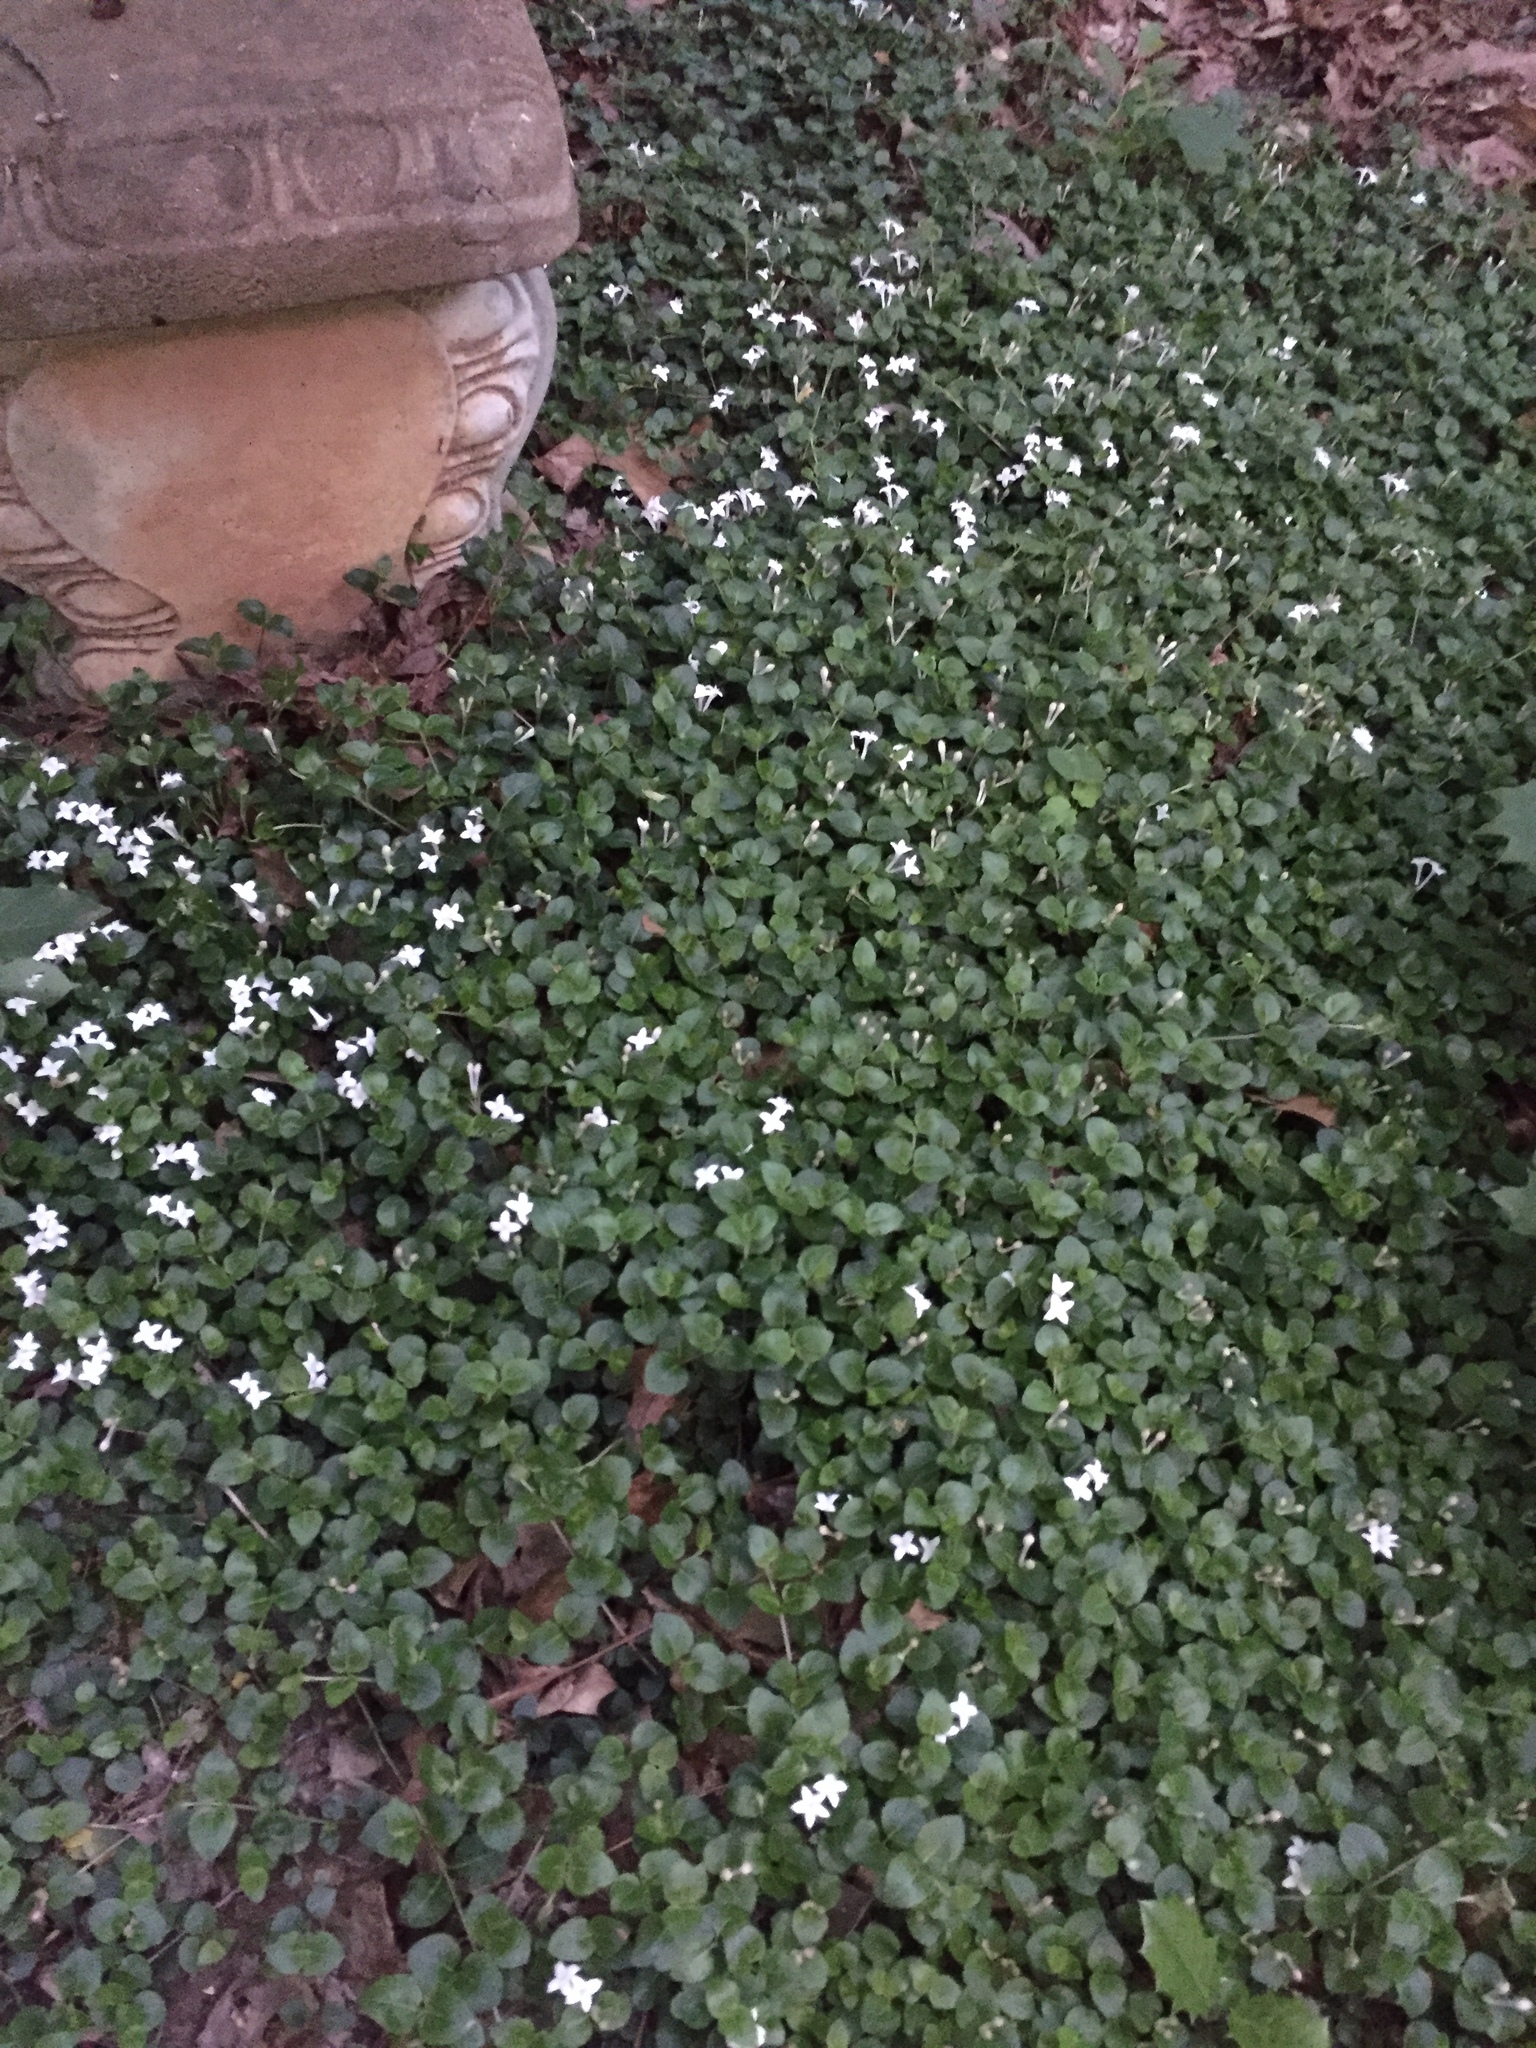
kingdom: Plantae
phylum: Tracheophyta
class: Magnoliopsida
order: Gentianales
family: Rubiaceae
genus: Mitchella
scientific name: Mitchella repens
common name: Partridge-berry
